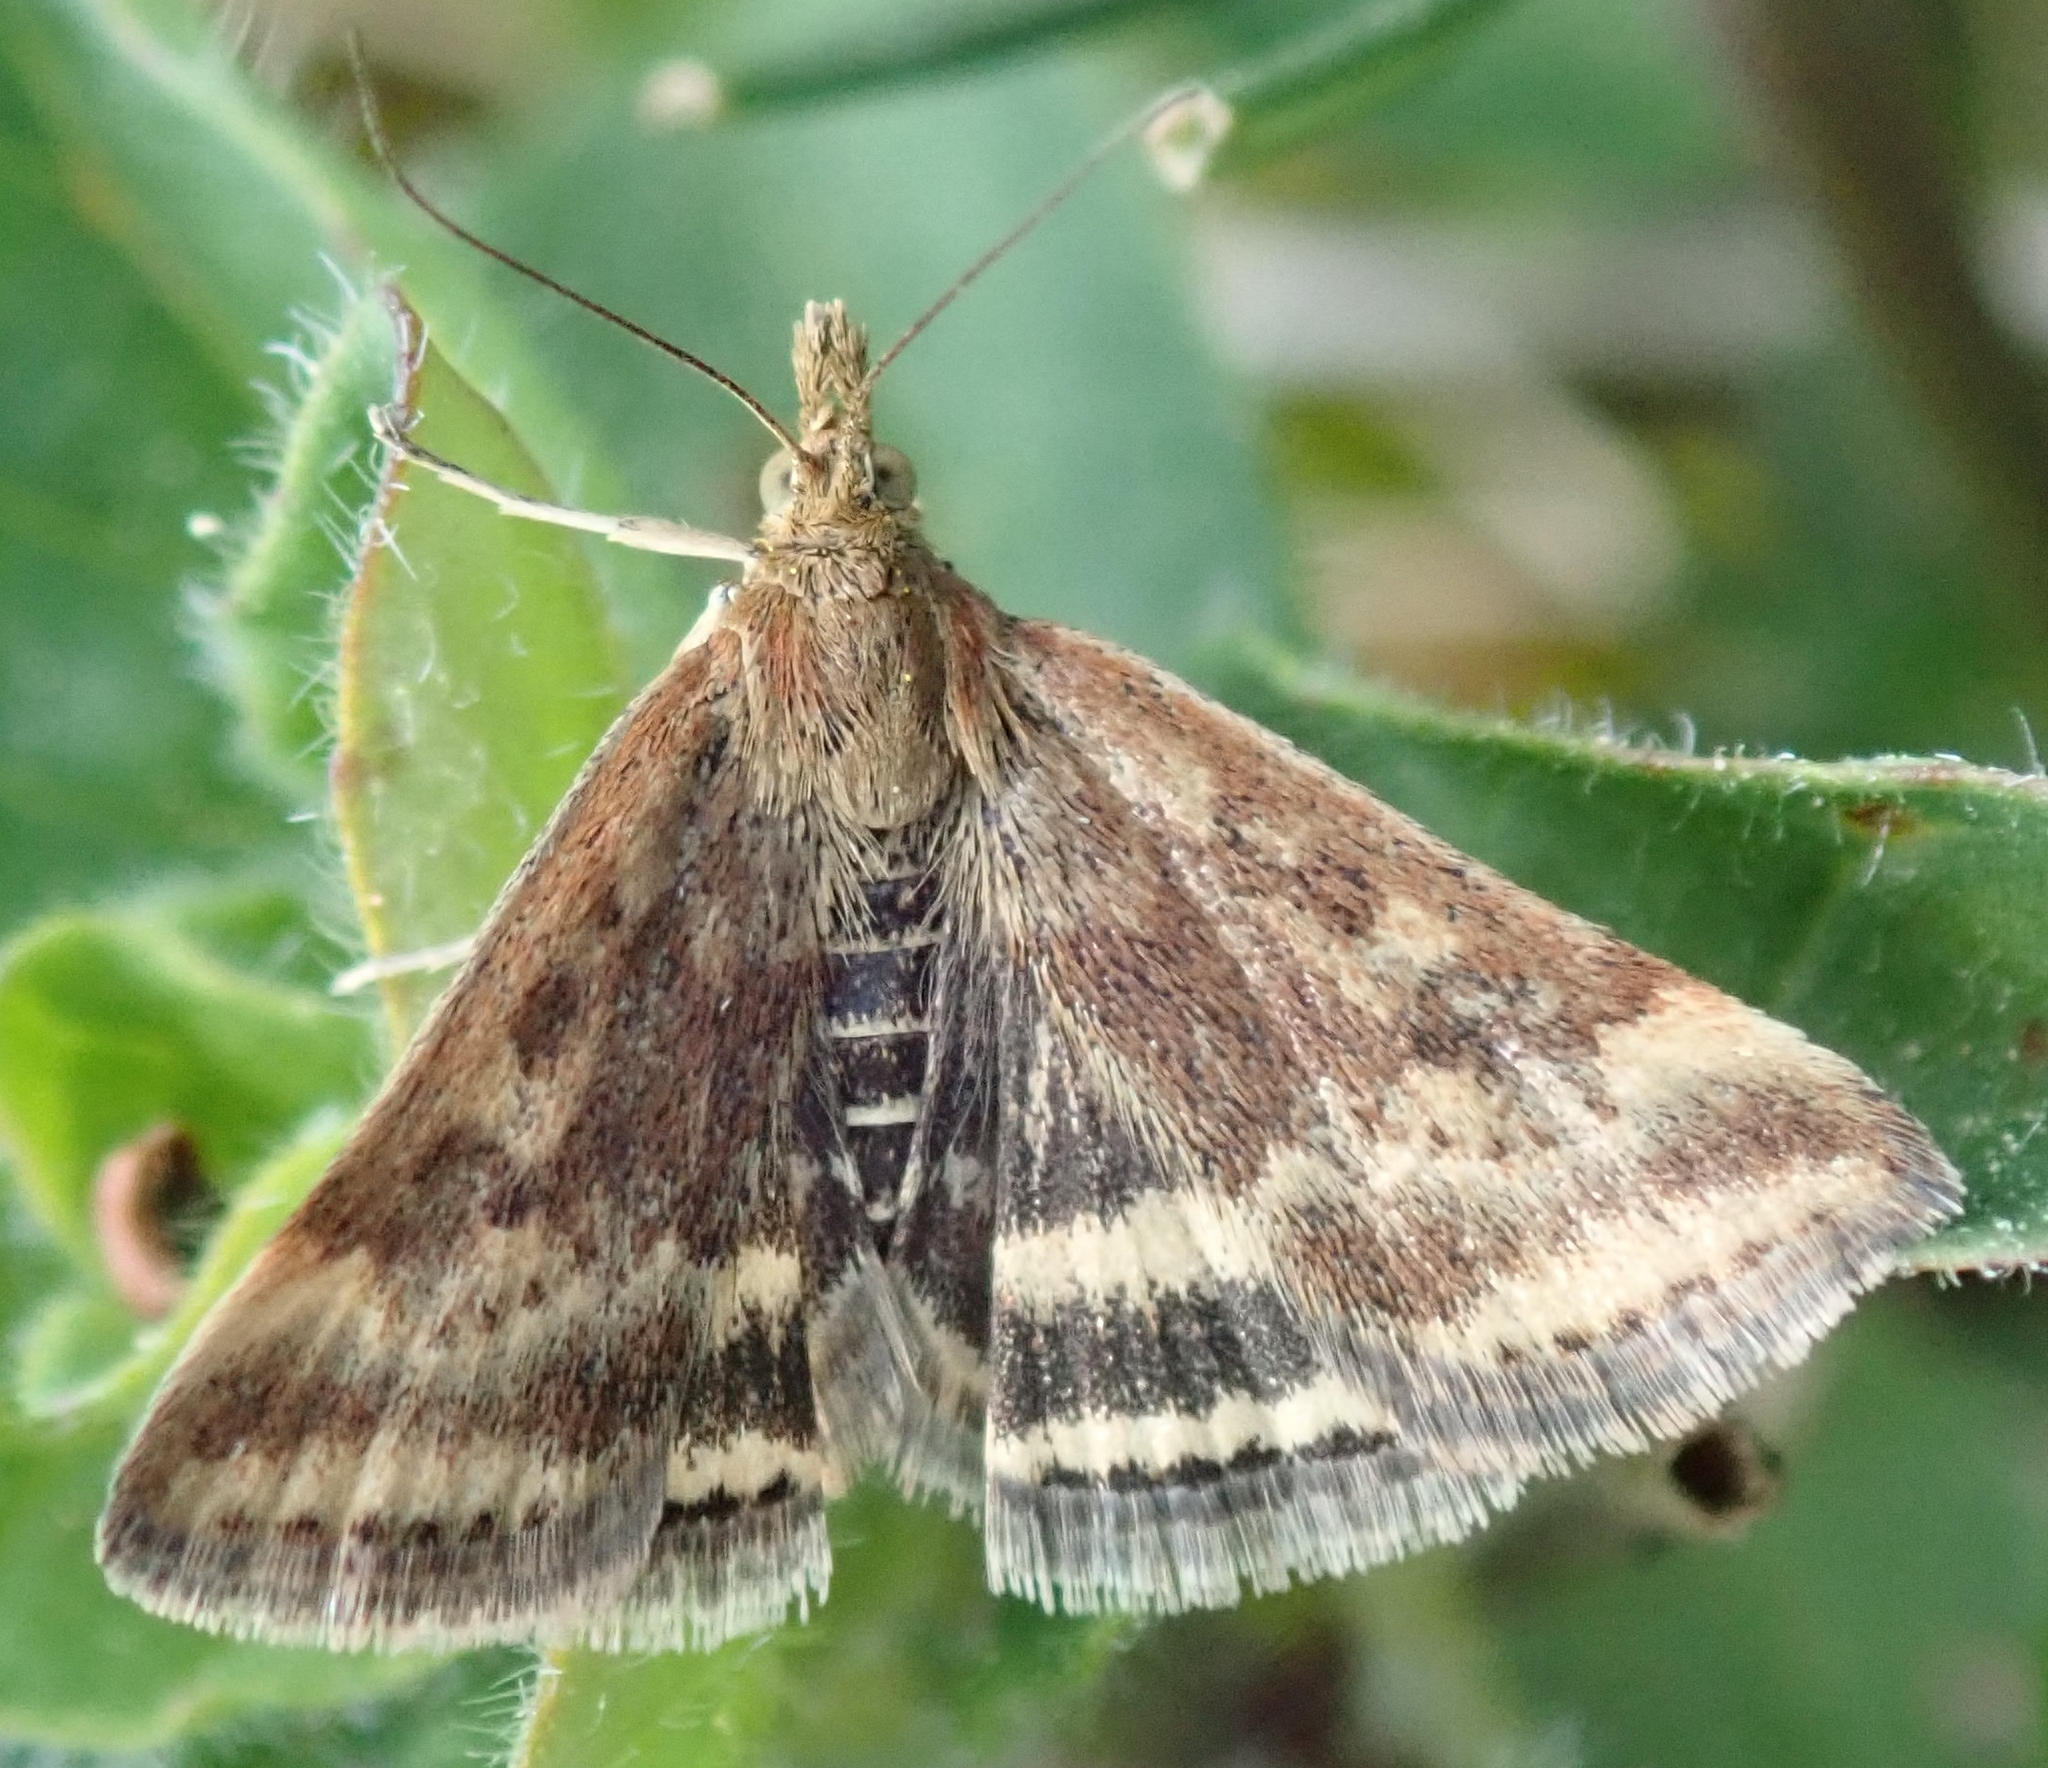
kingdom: Animalia
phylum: Arthropoda
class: Insecta
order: Lepidoptera
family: Crambidae
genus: Pyrausta
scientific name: Pyrausta despicata
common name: Straw-barred pearl
